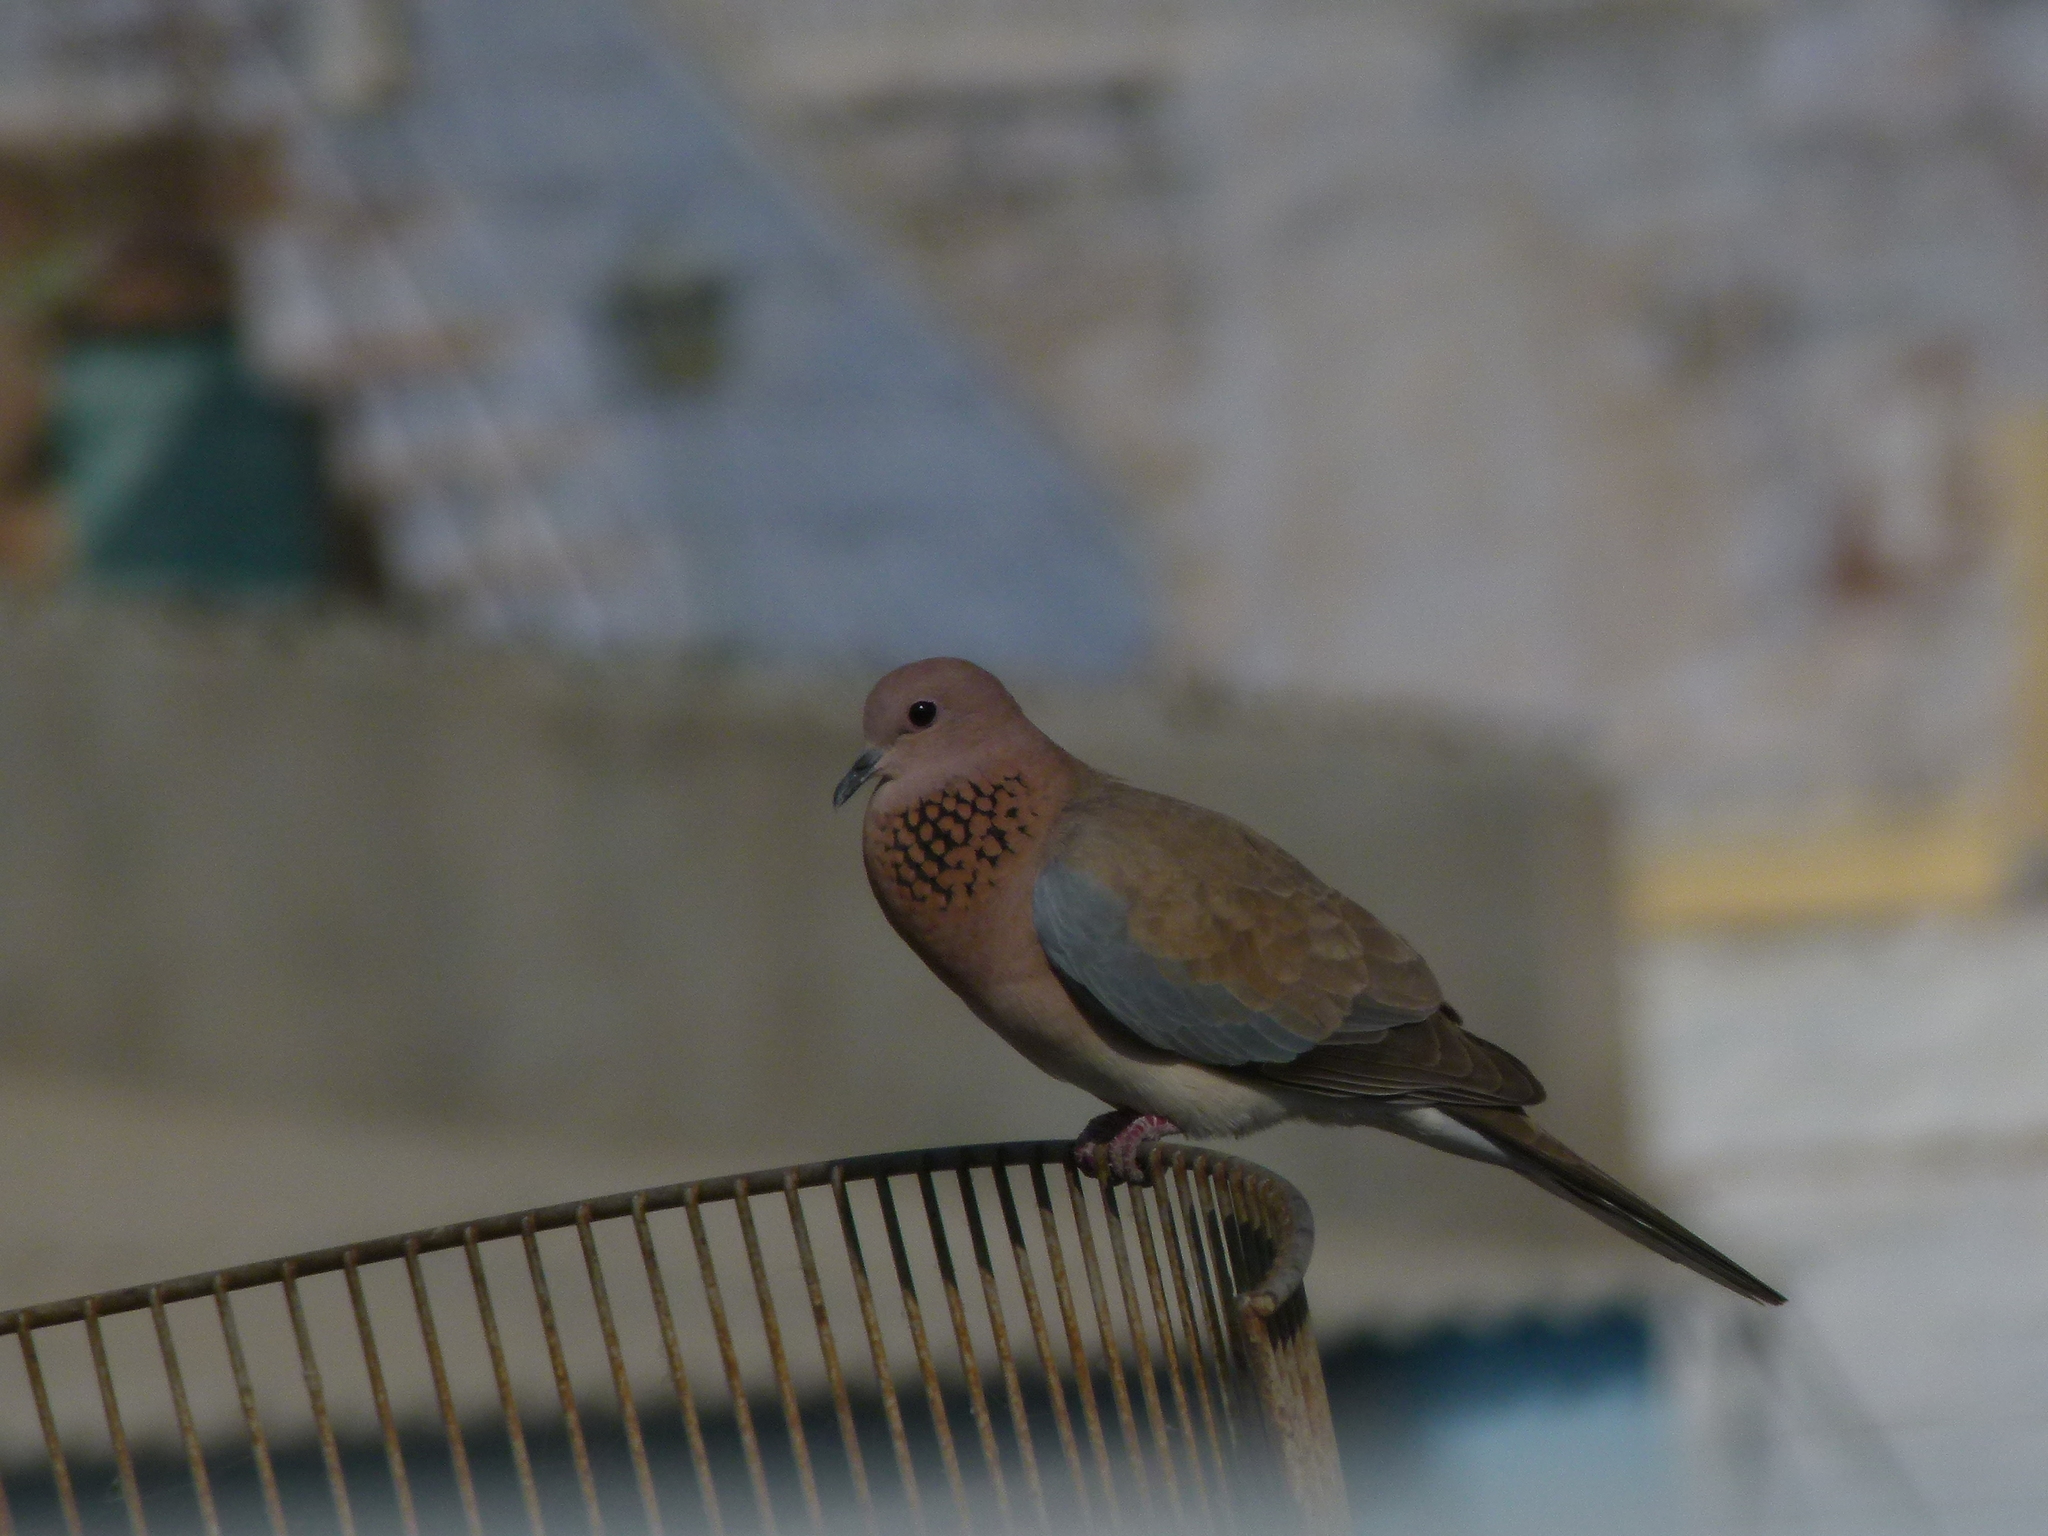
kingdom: Animalia
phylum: Chordata
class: Aves
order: Columbiformes
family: Columbidae
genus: Spilopelia
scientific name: Spilopelia senegalensis
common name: Laughing dove
